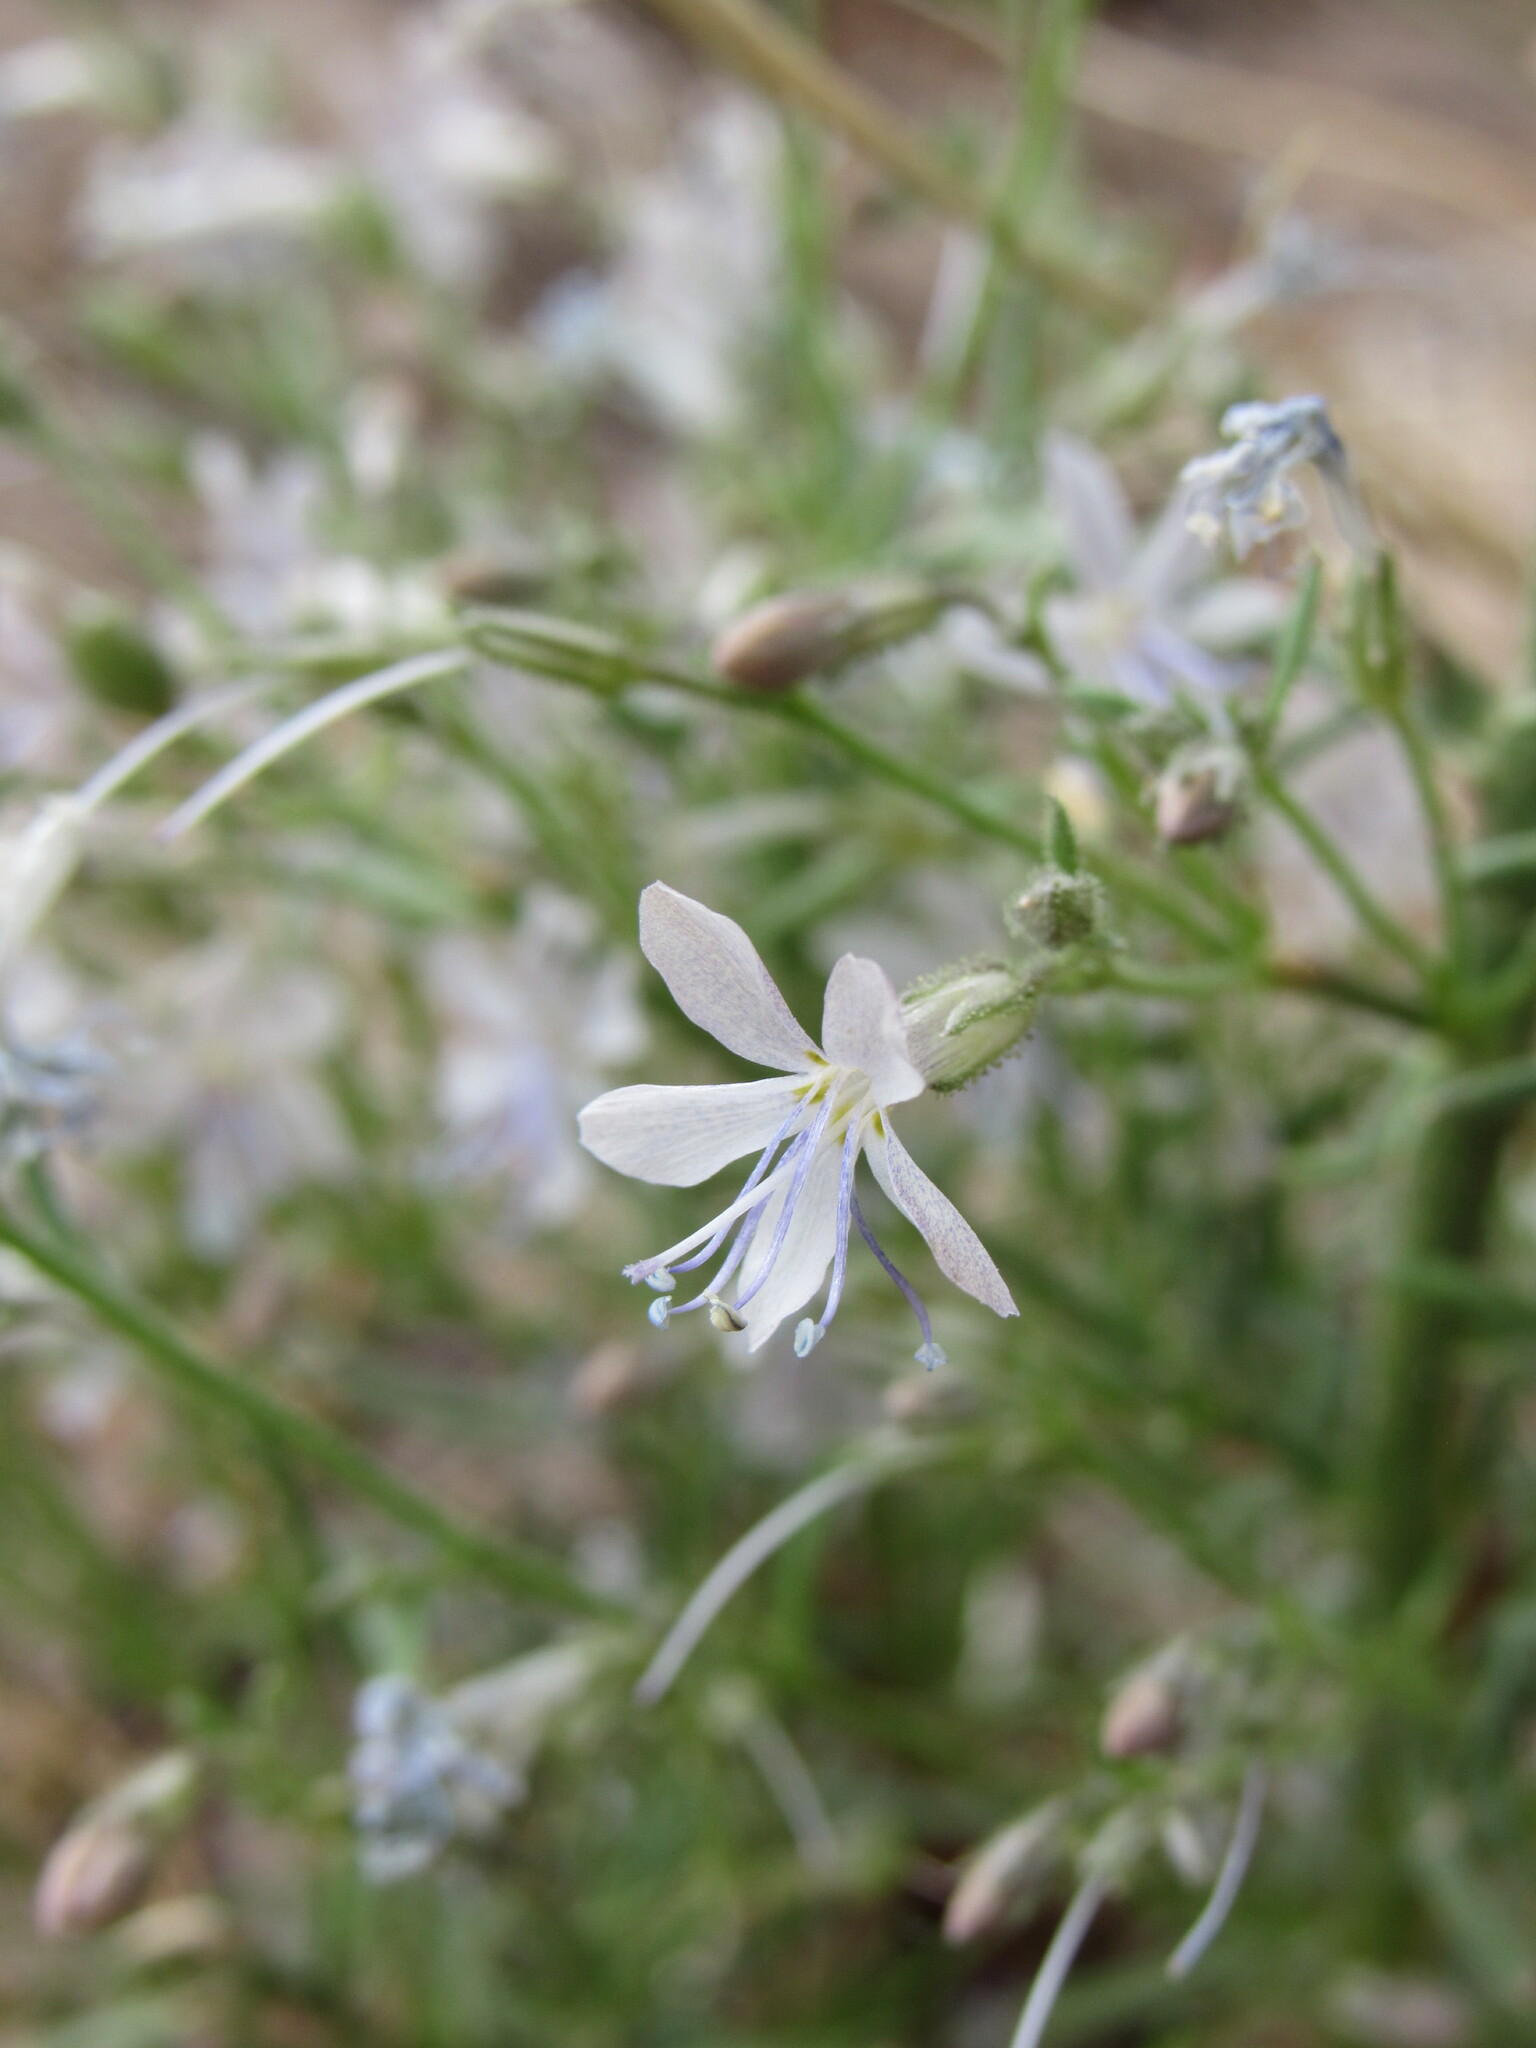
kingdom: Plantae
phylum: Tracheophyta
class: Magnoliopsida
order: Ericales
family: Polemoniaceae
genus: Aliciella
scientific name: Aliciella pinnatifida
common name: Sticky gilia
